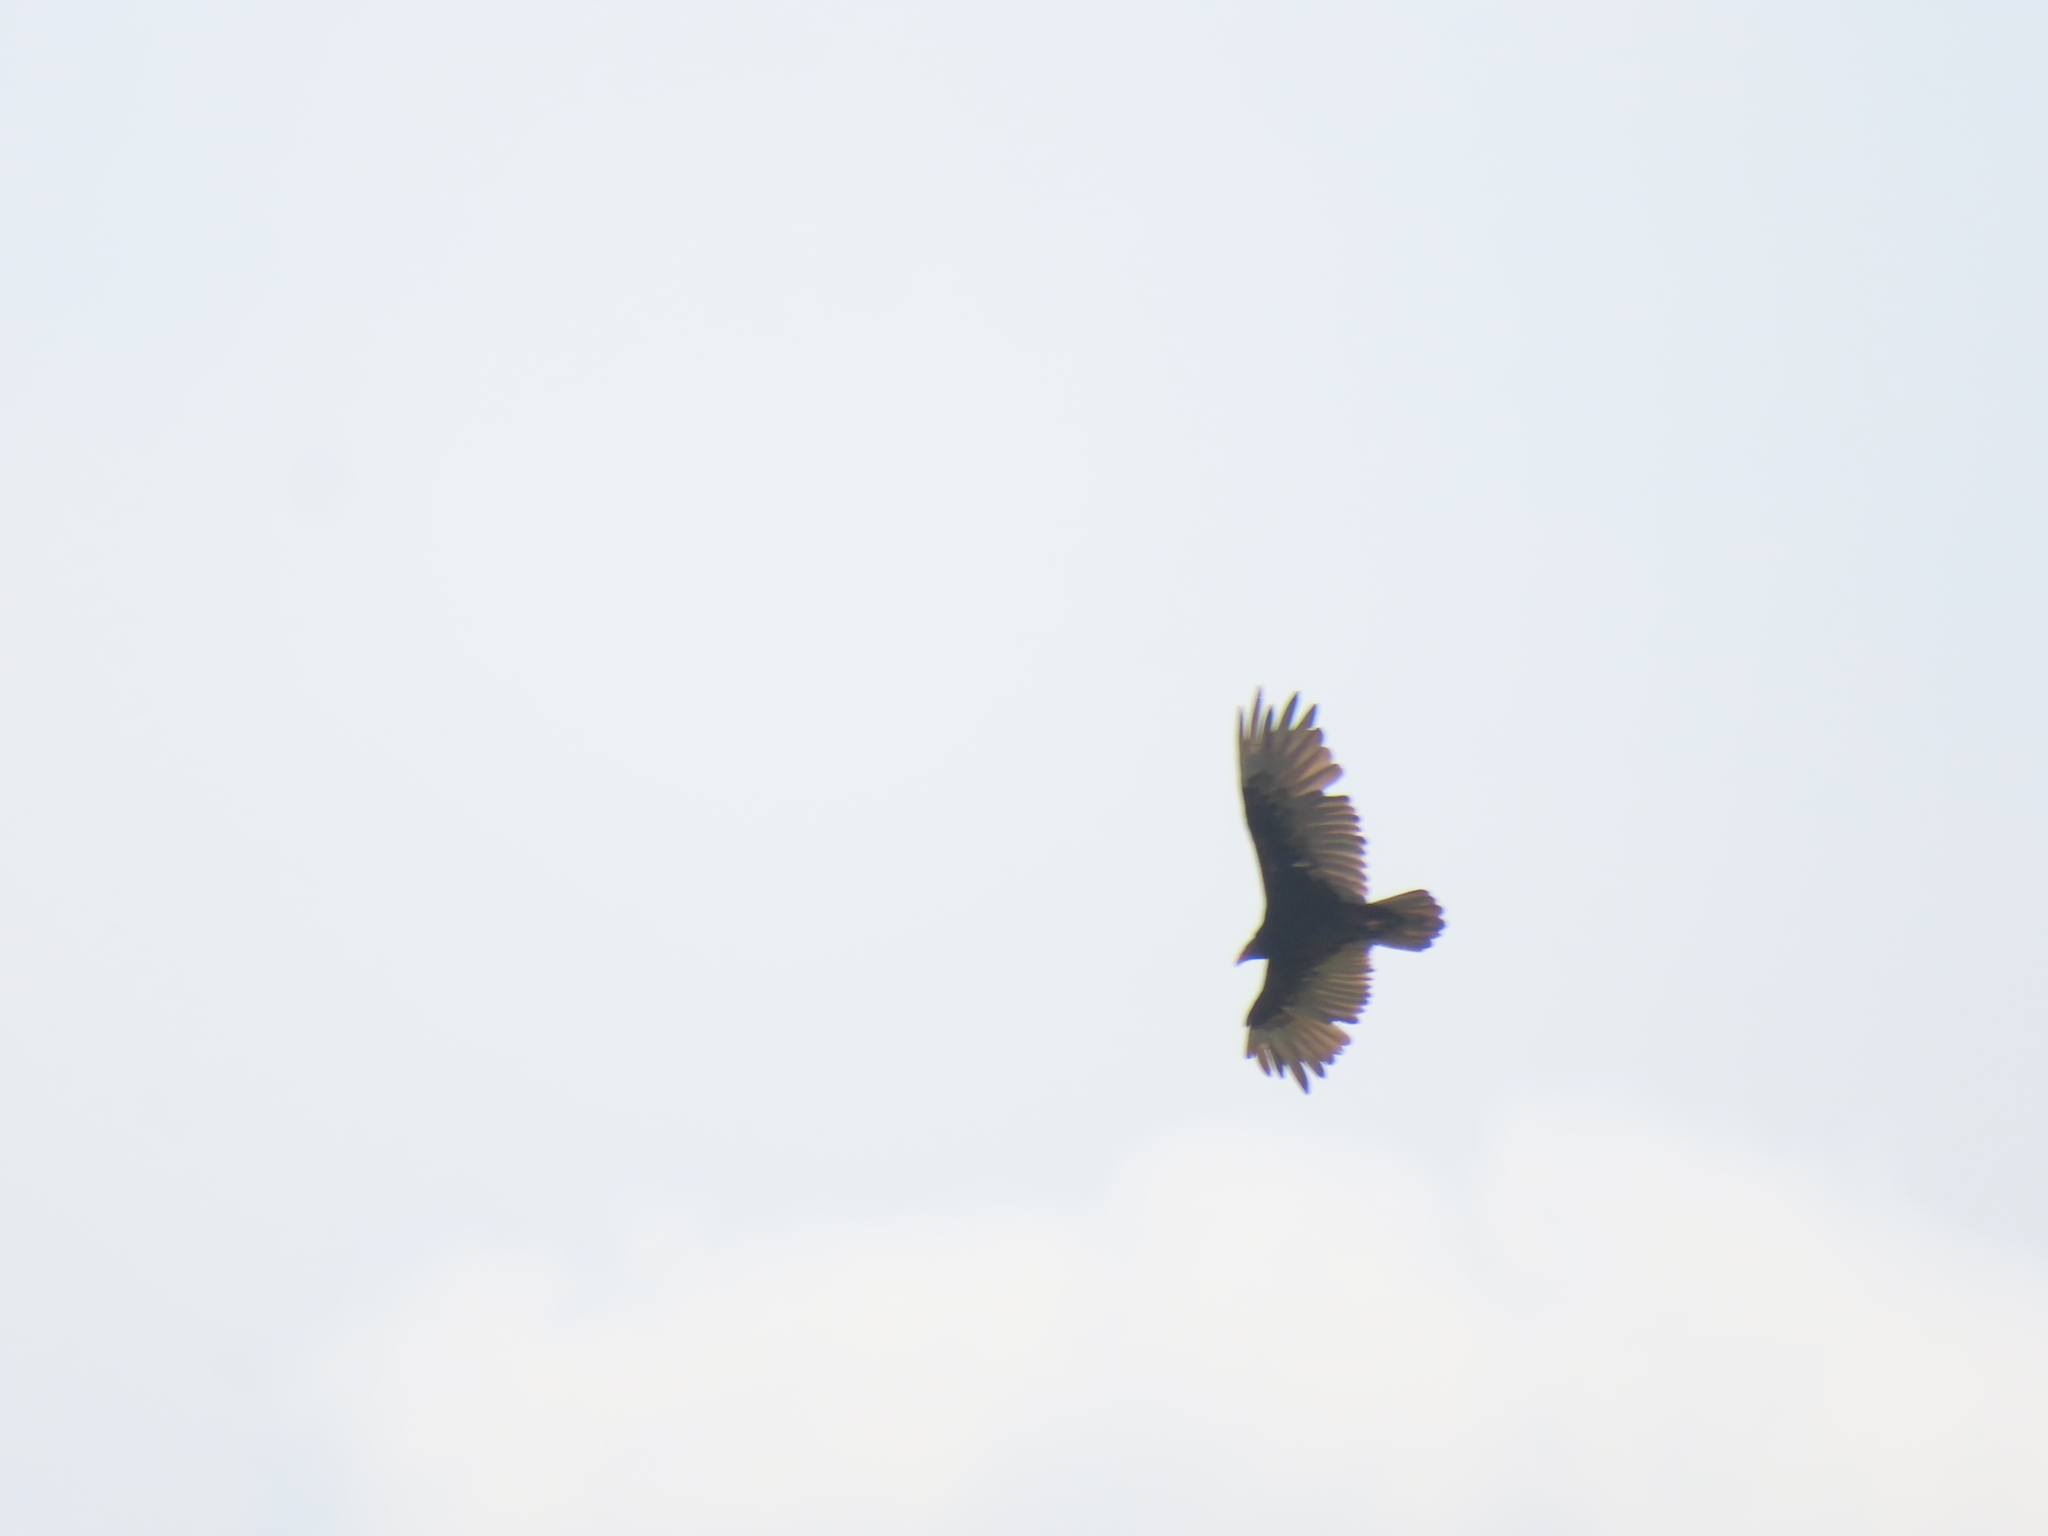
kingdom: Animalia
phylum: Chordata
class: Aves
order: Accipitriformes
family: Cathartidae
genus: Cathartes
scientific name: Cathartes aura
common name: Turkey vulture
